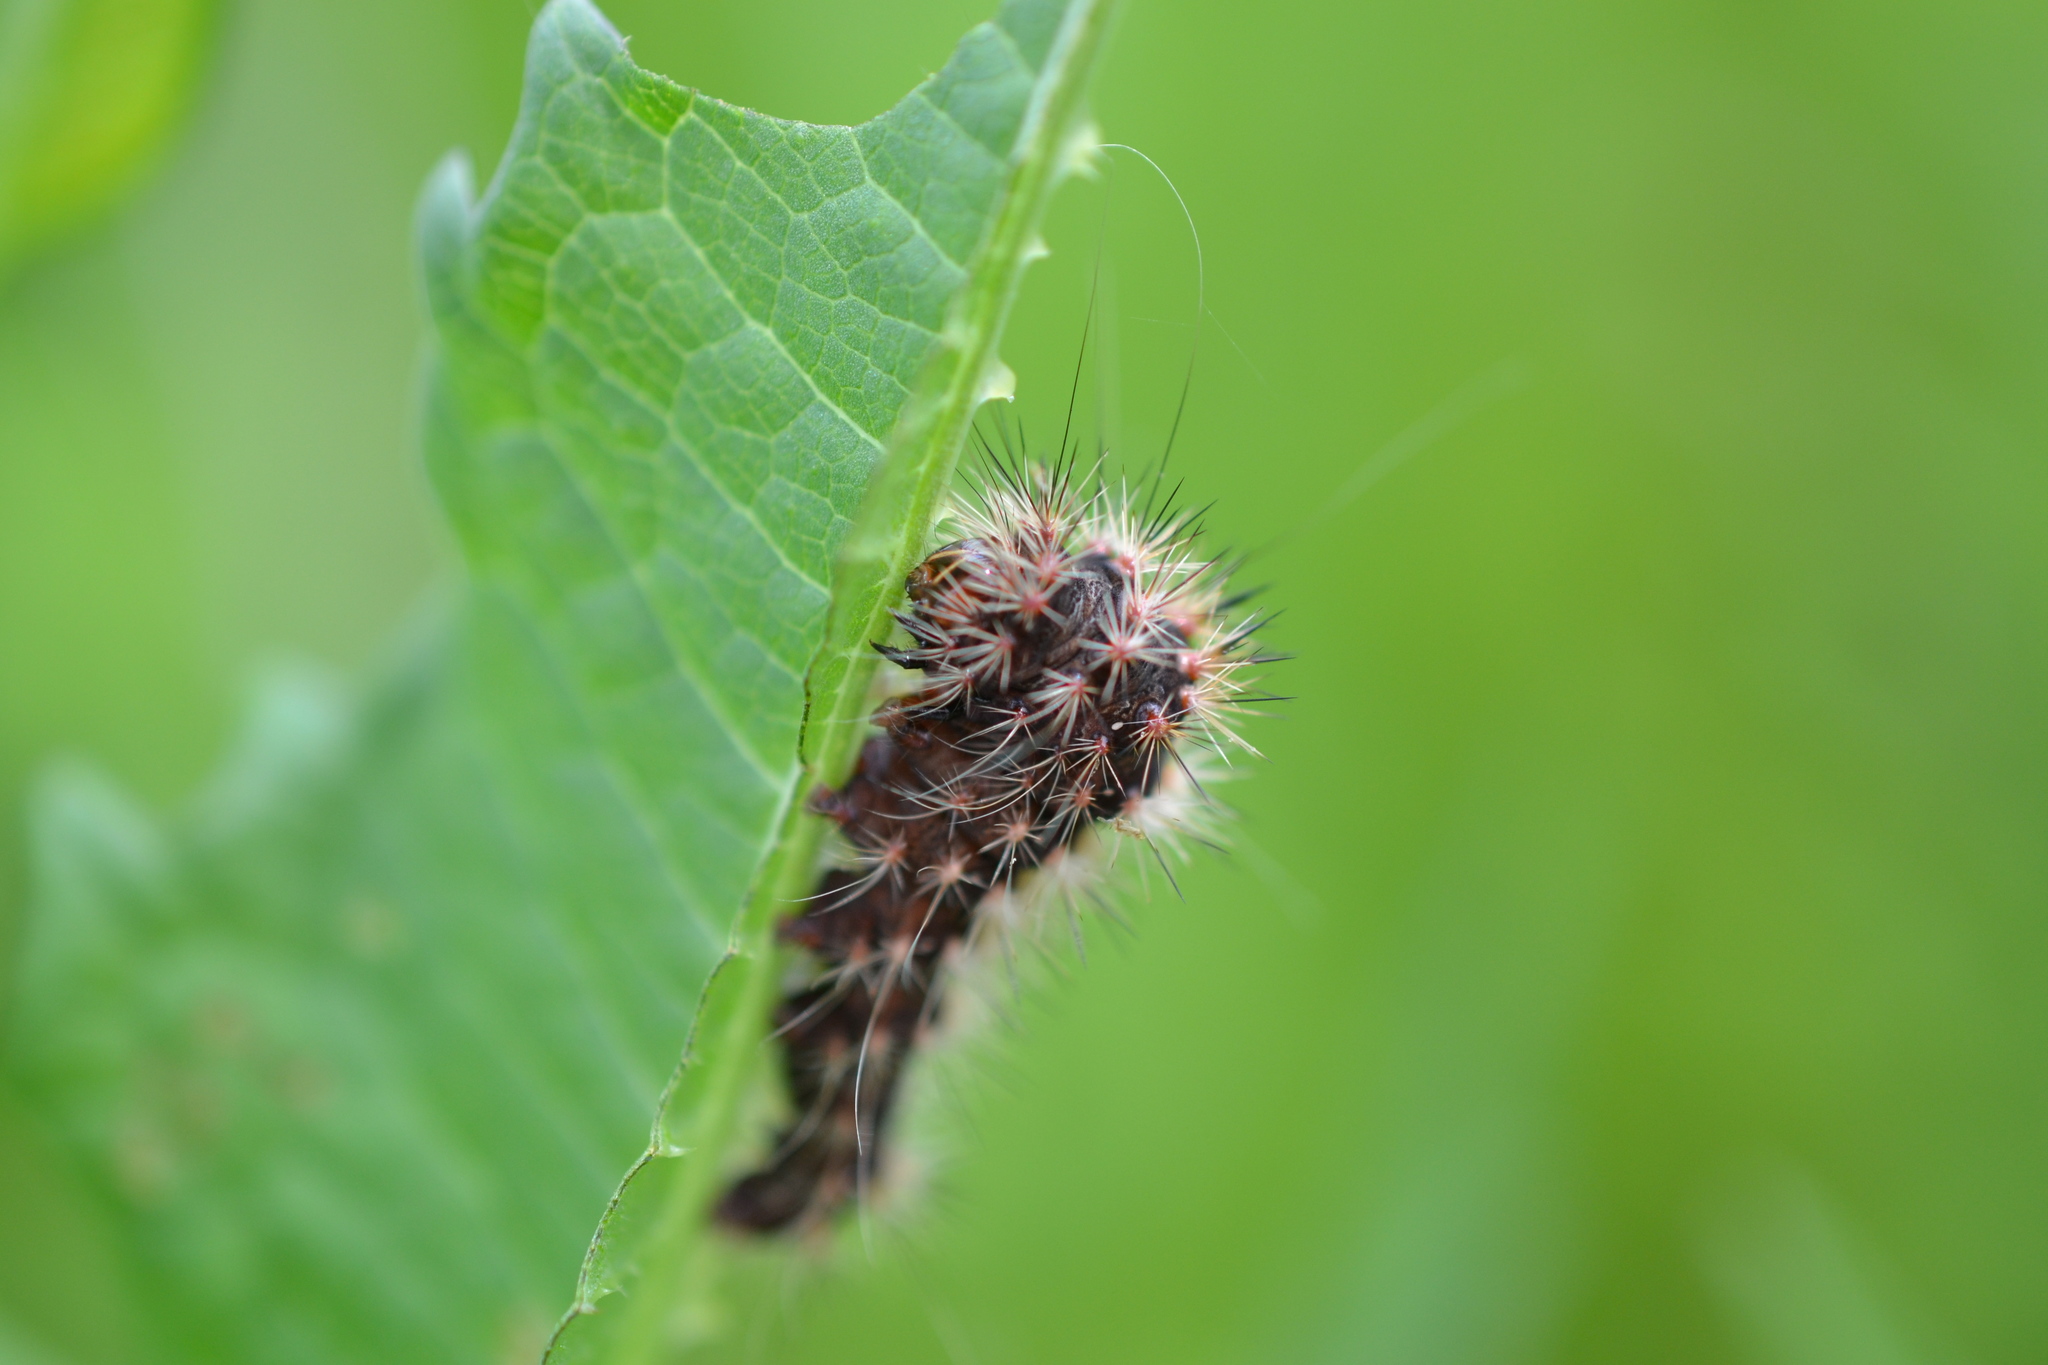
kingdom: Animalia
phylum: Arthropoda
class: Insecta
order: Lepidoptera
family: Noctuidae
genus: Acronicta
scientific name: Acronicta longa
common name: Long-winged dagger
